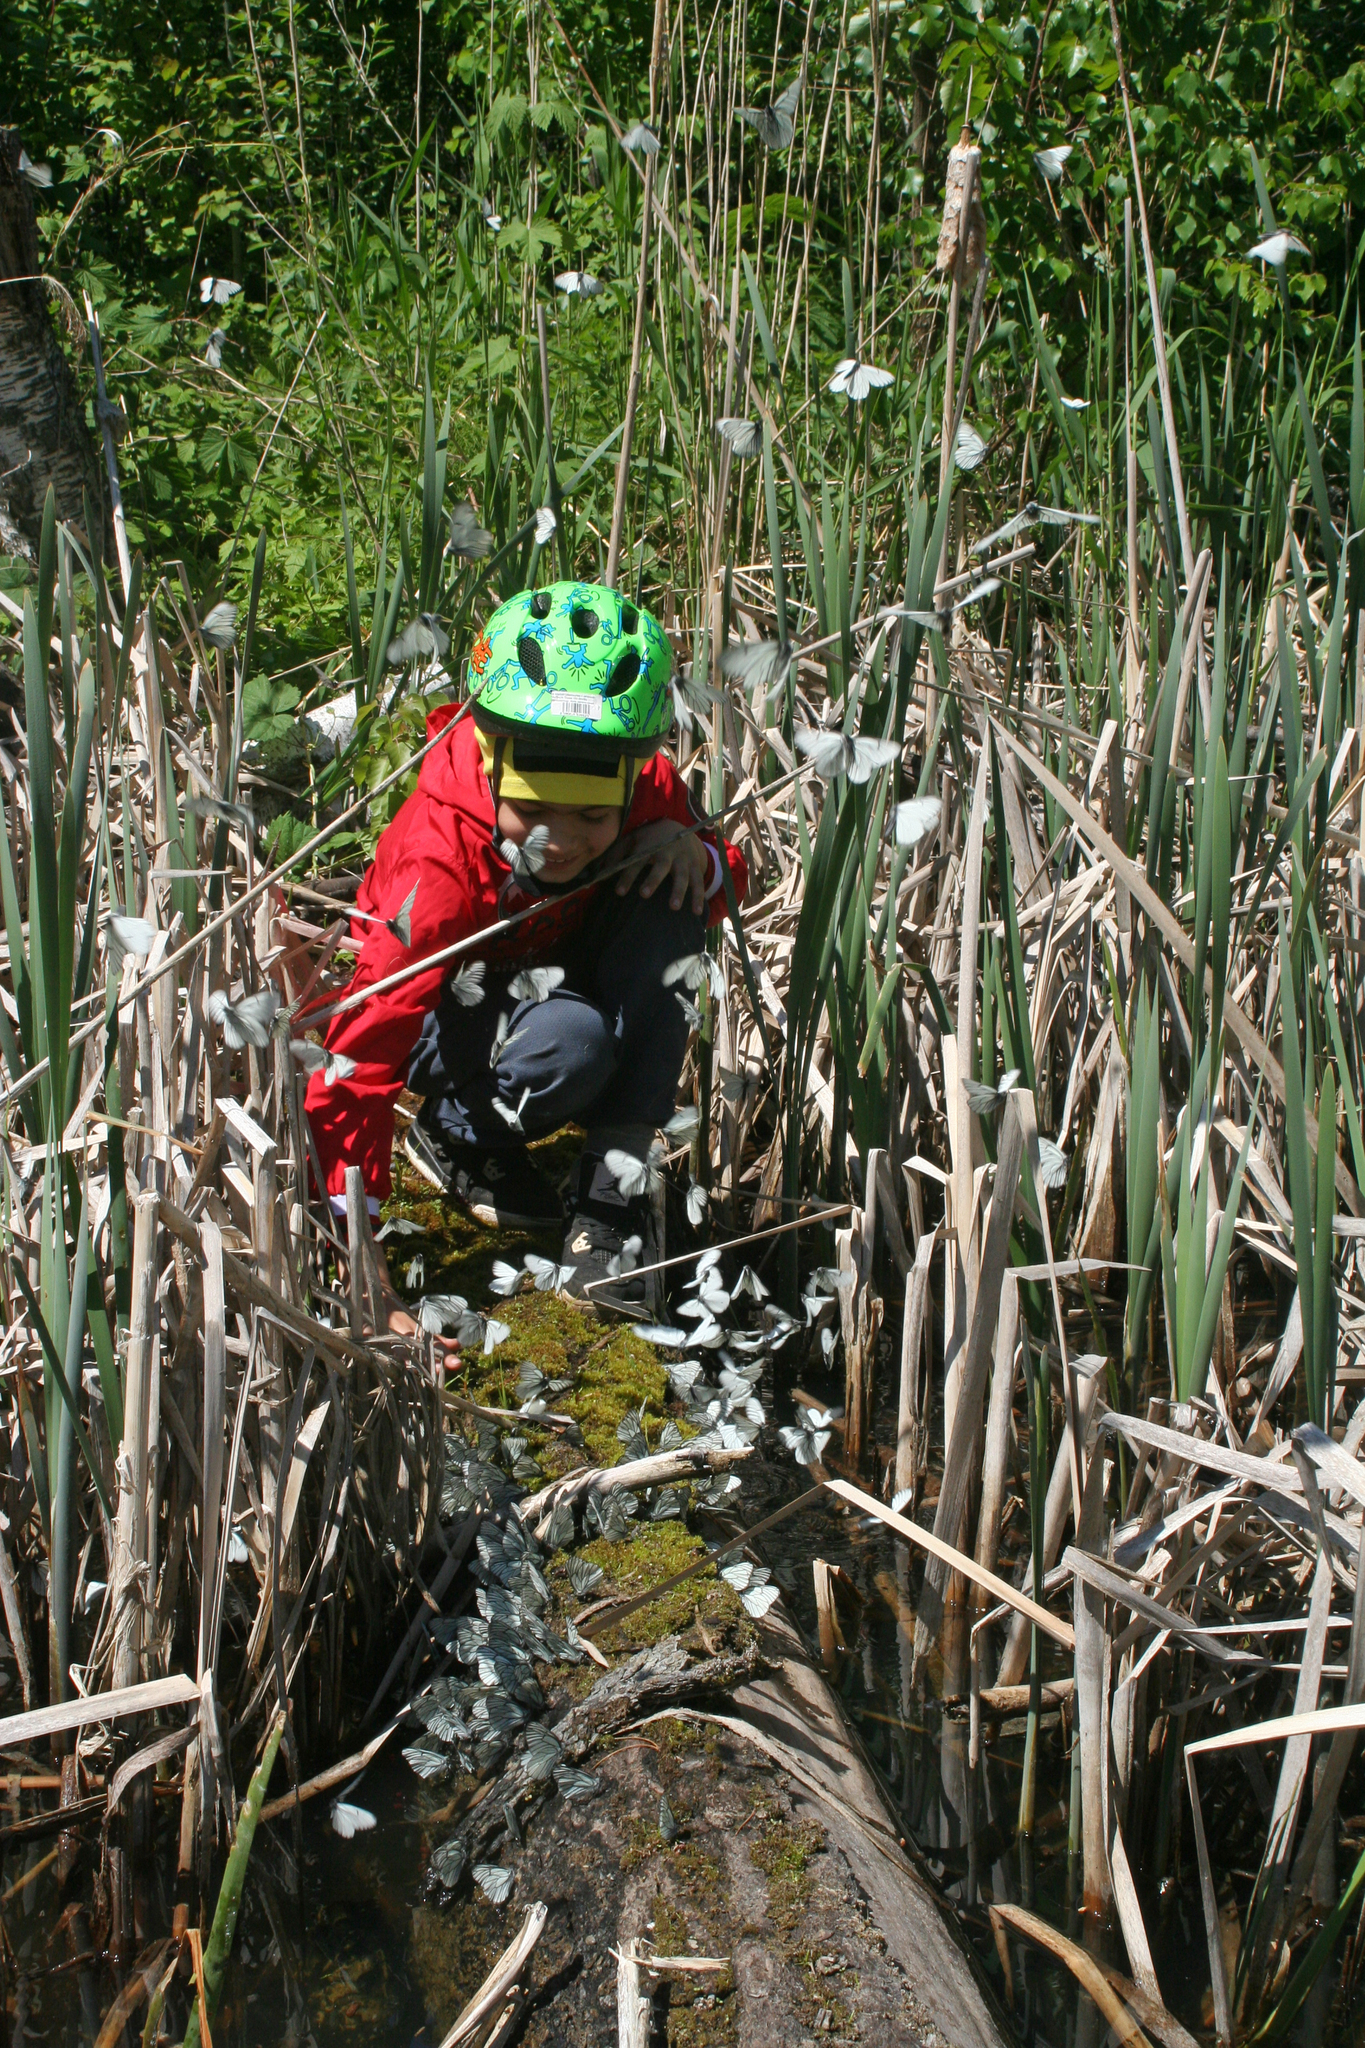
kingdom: Animalia
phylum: Arthropoda
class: Insecta
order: Lepidoptera
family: Pieridae
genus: Aporia
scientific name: Aporia crataegi
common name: Black-veined white
